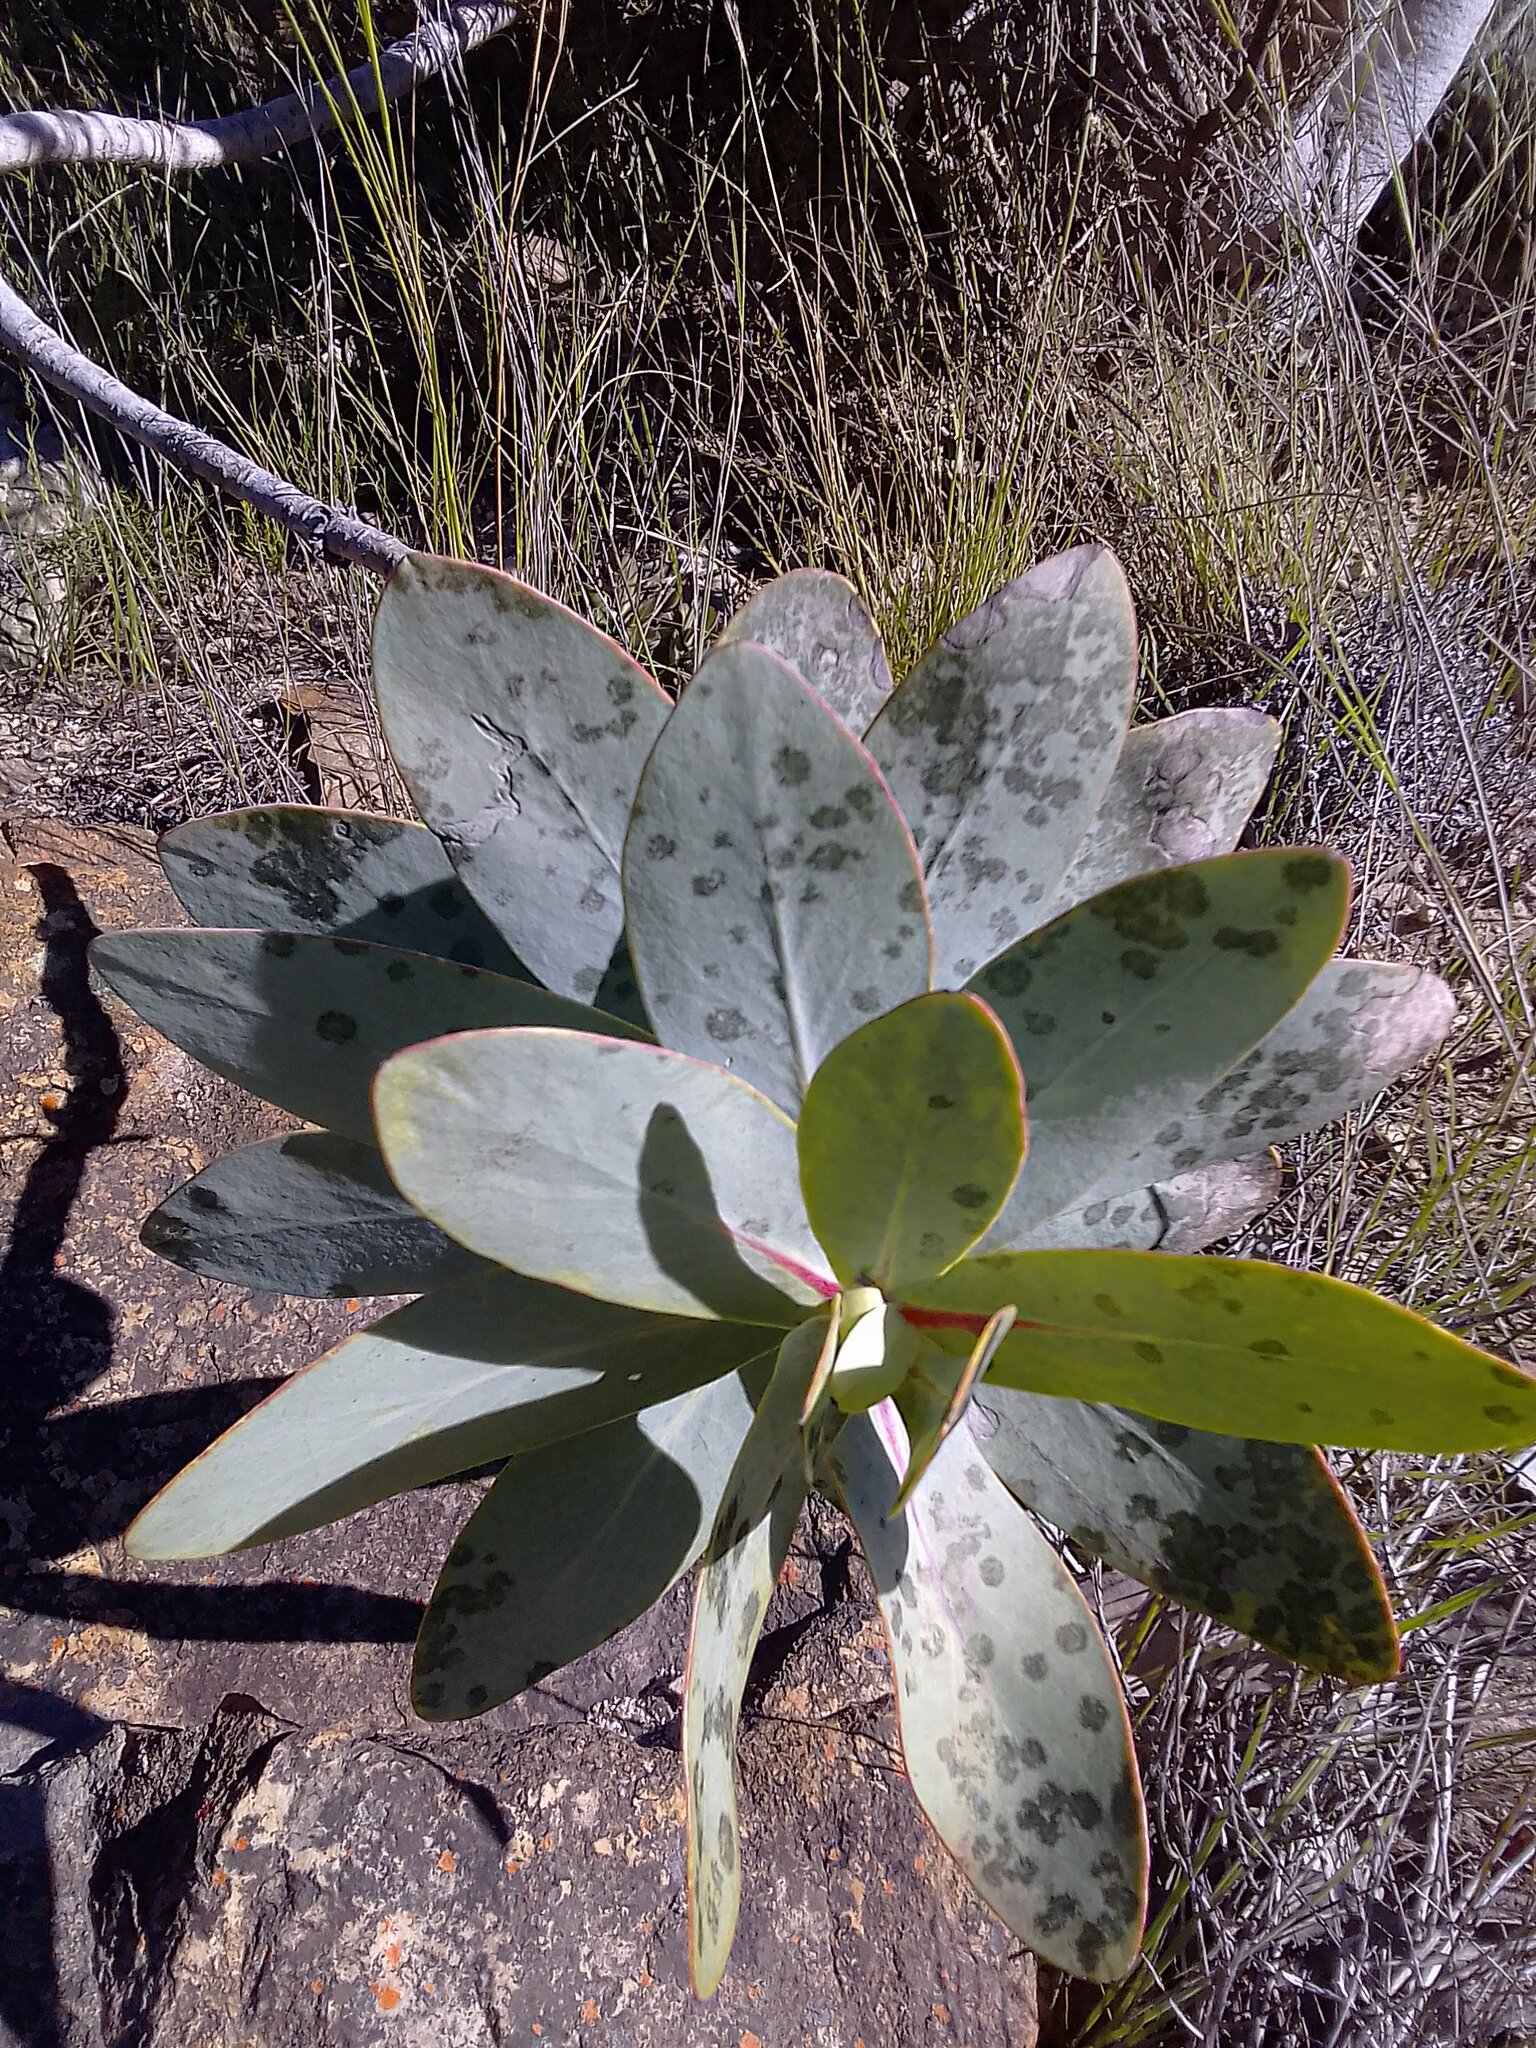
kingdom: Plantae
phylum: Tracheophyta
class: Magnoliopsida
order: Proteales
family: Proteaceae
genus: Protea
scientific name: Protea nitida
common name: Tree protea
